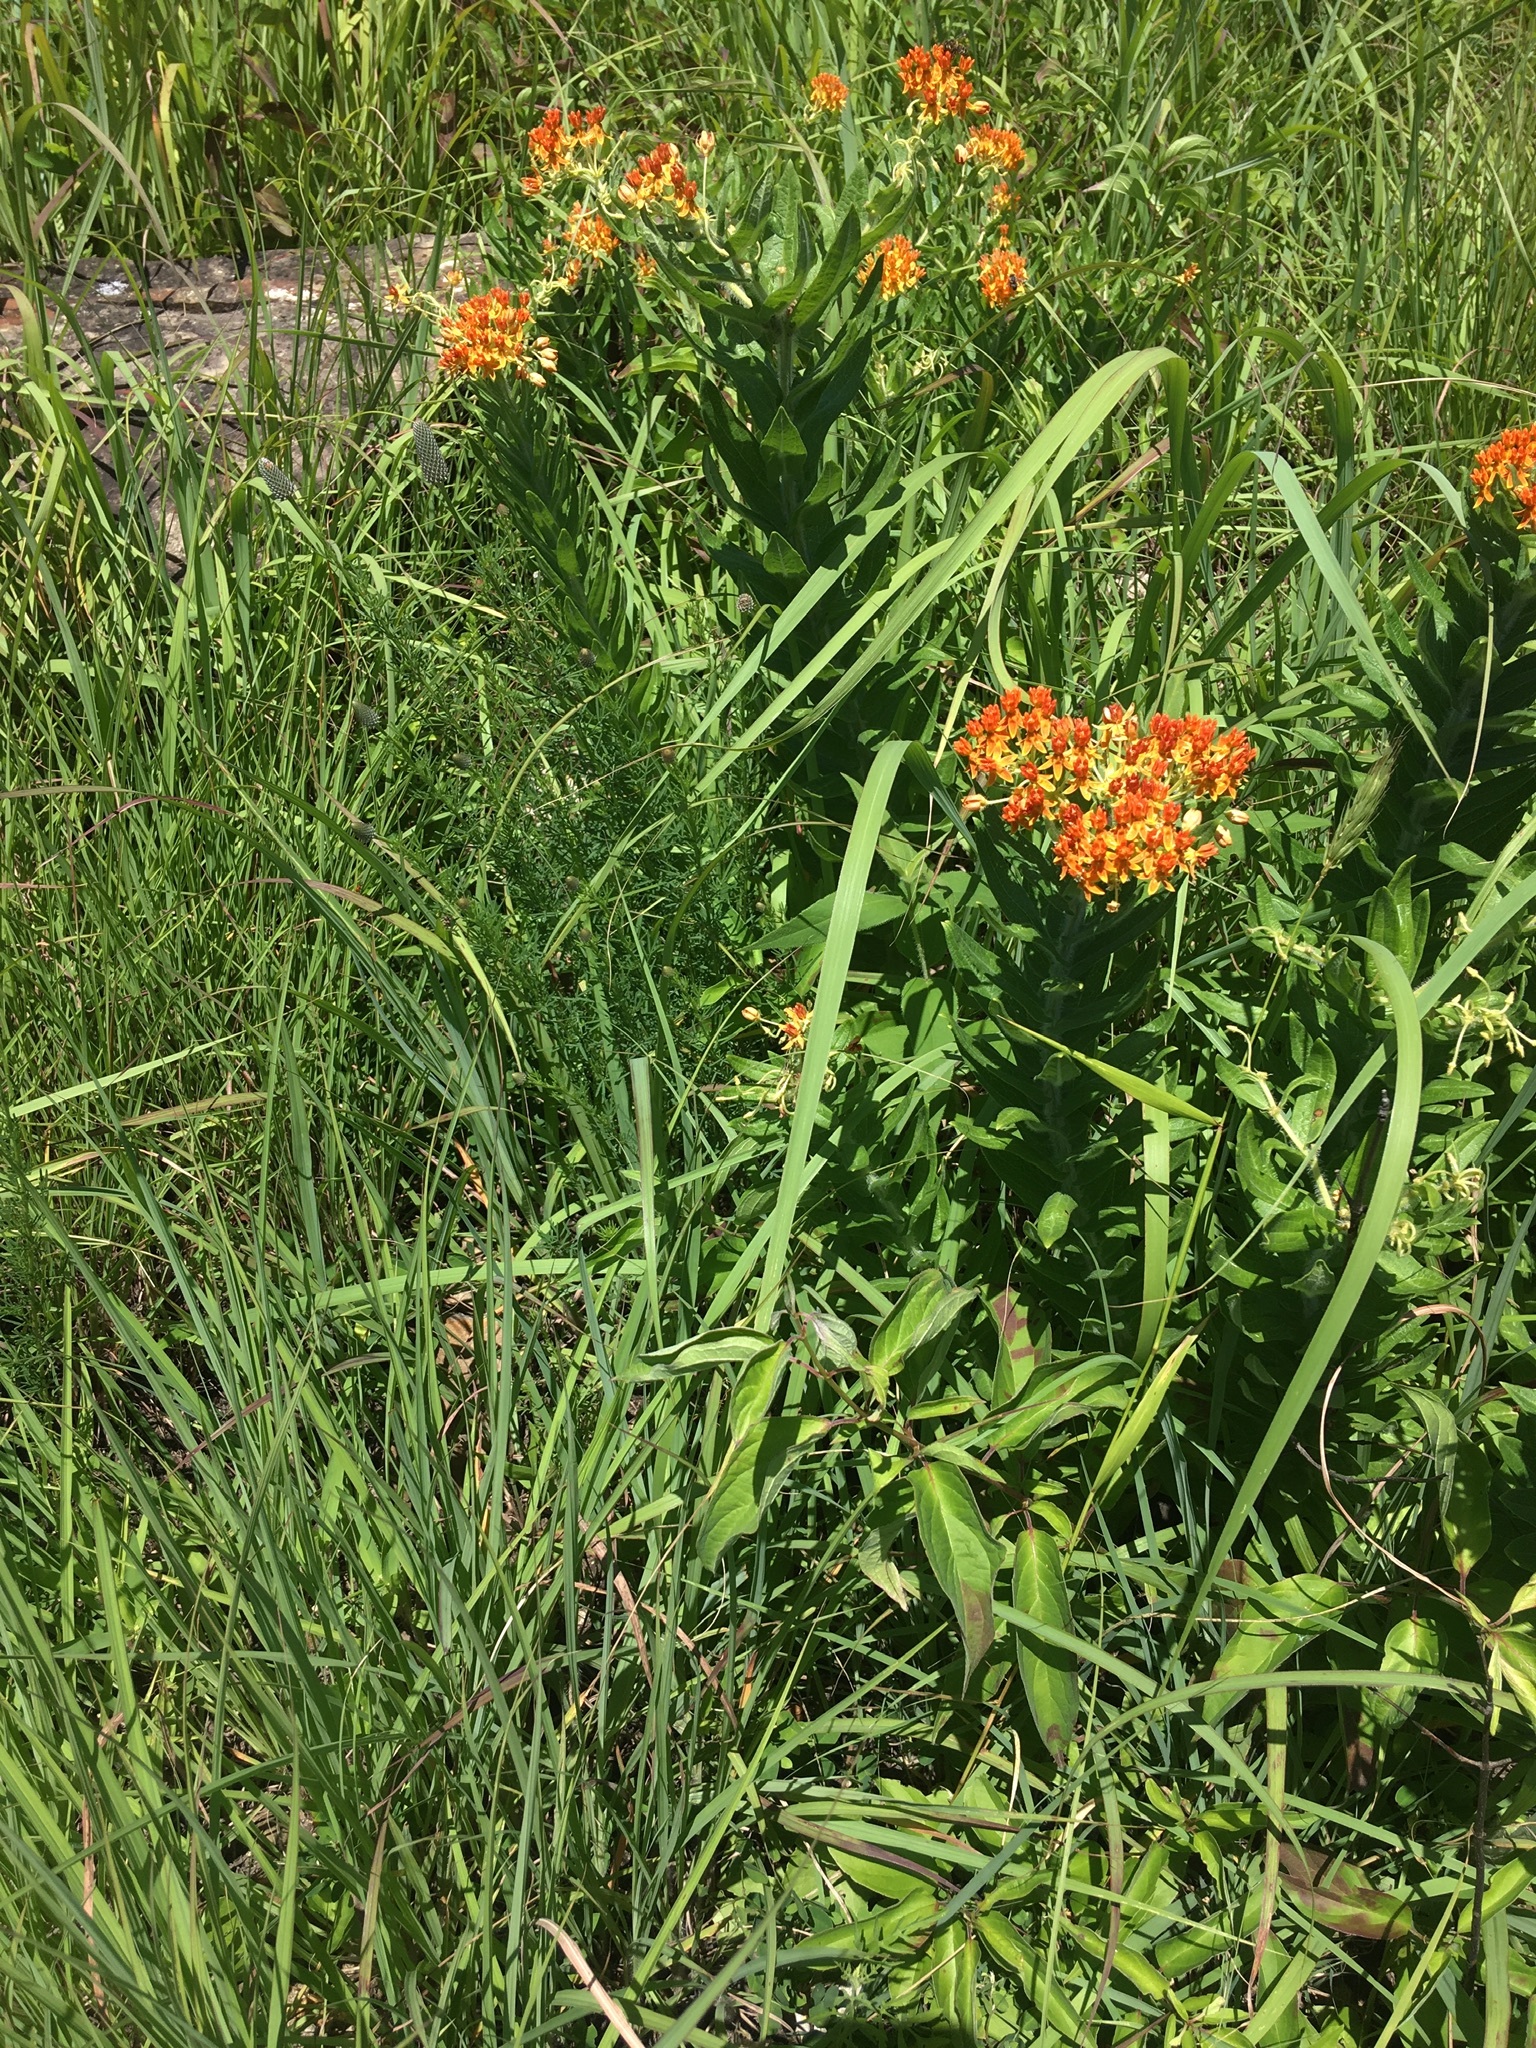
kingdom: Plantae
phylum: Tracheophyta
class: Magnoliopsida
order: Gentianales
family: Apocynaceae
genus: Asclepias
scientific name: Asclepias tuberosa
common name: Butterfly milkweed
